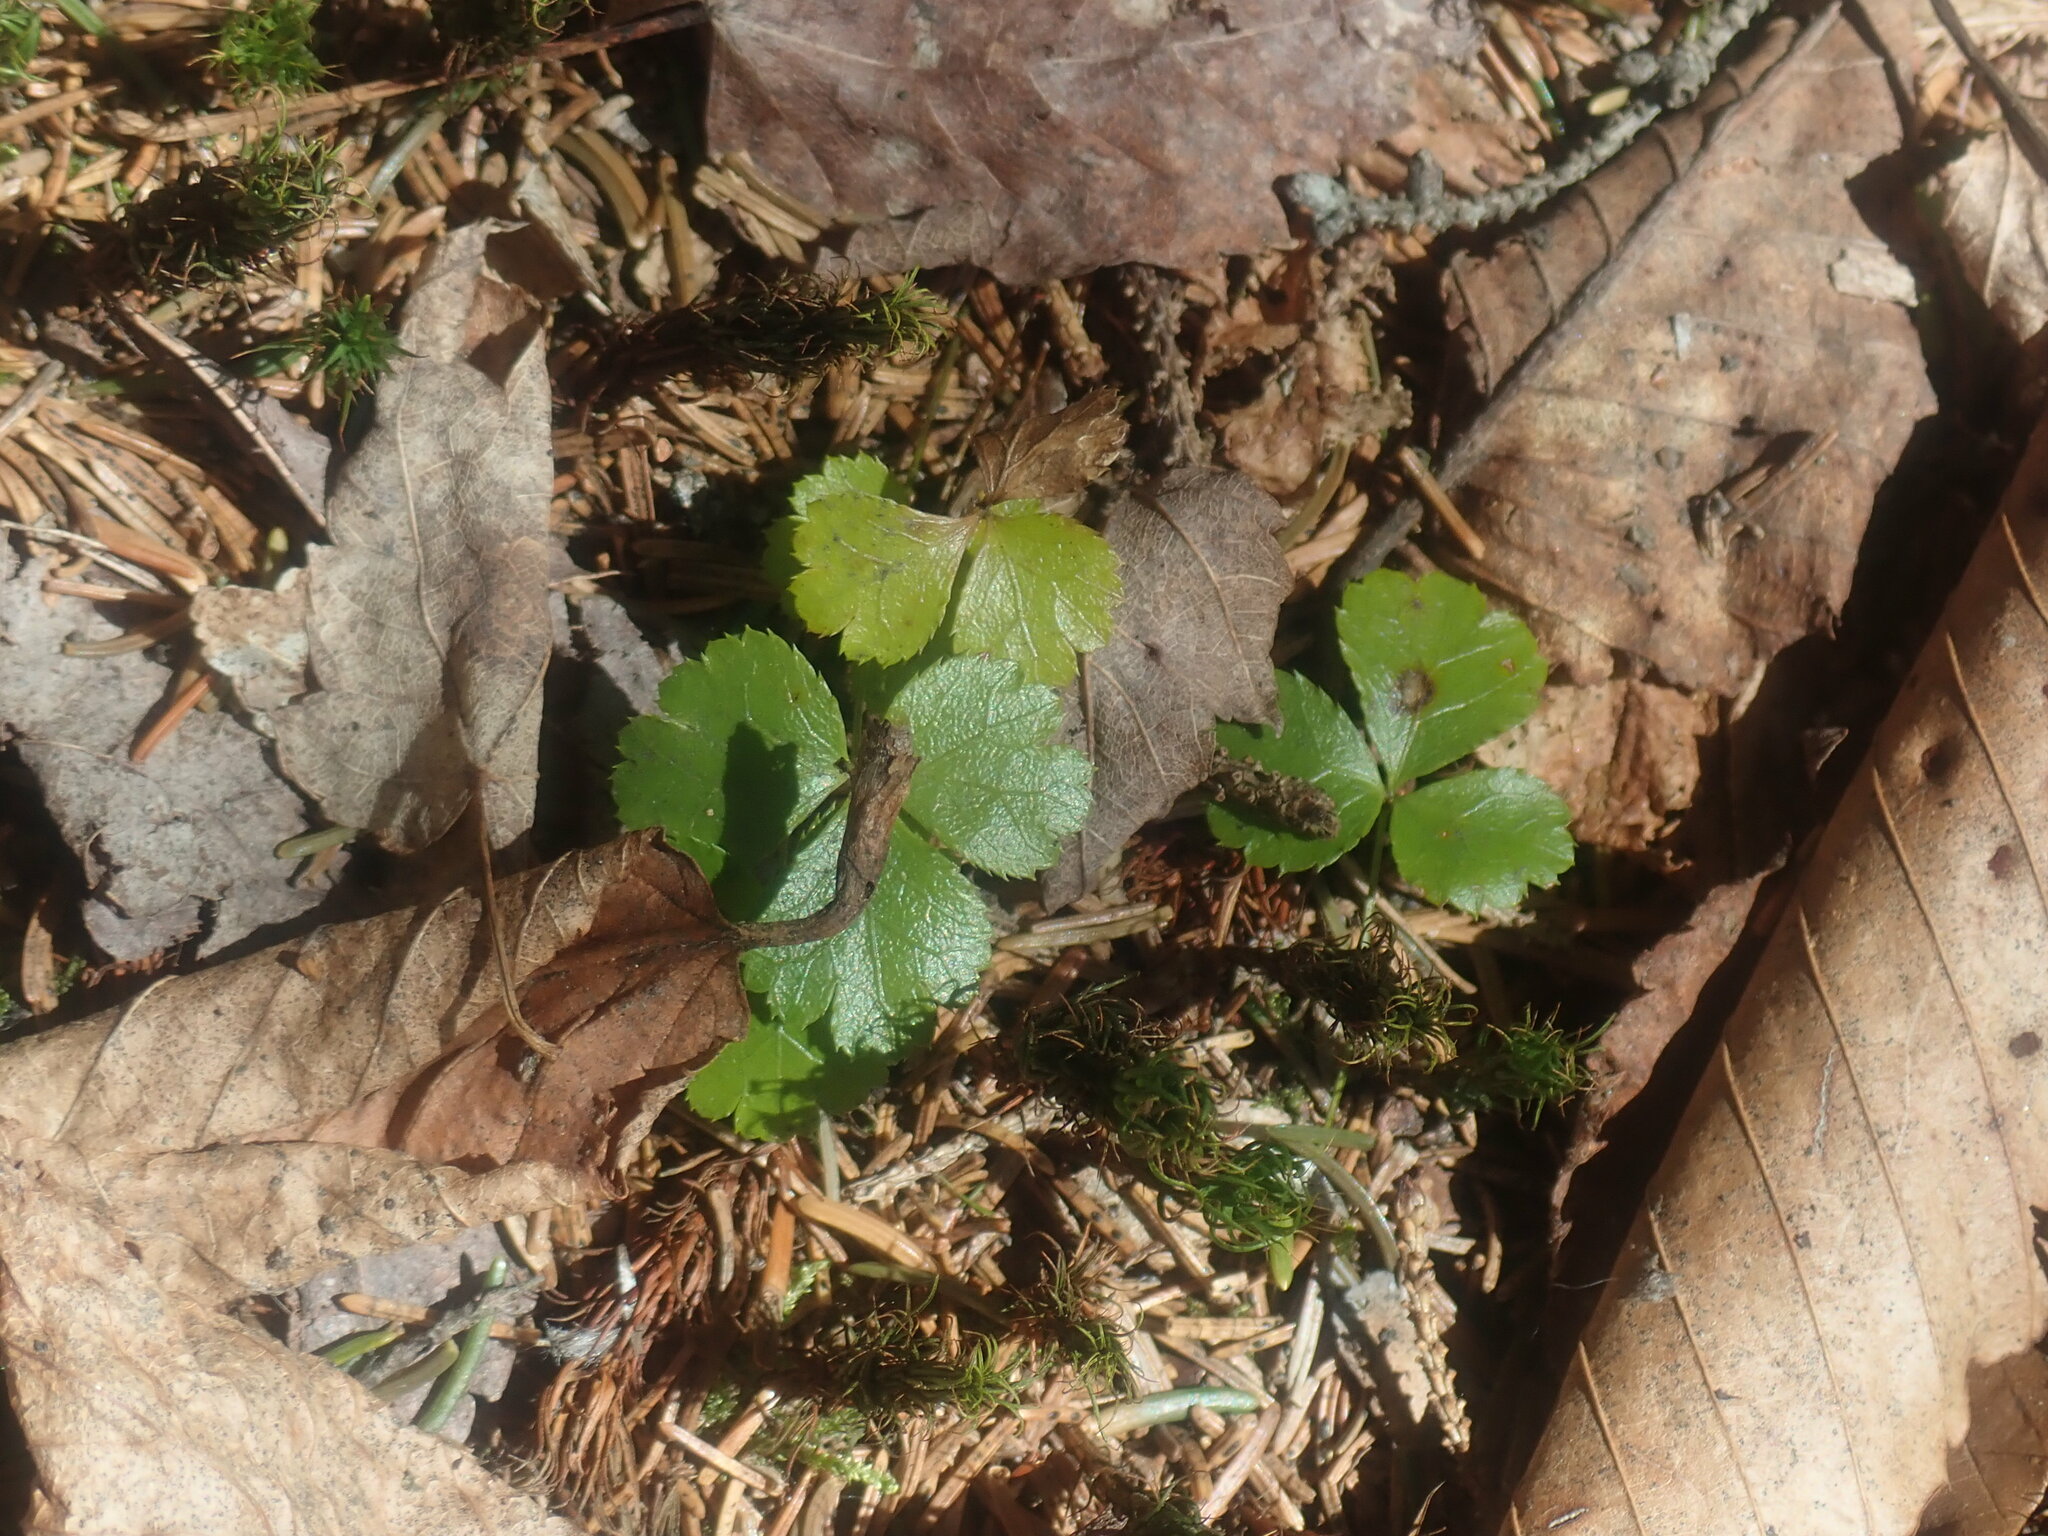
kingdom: Plantae
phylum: Tracheophyta
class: Magnoliopsida
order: Ranunculales
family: Ranunculaceae
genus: Coptis
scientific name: Coptis trifolia
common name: Canker-root
